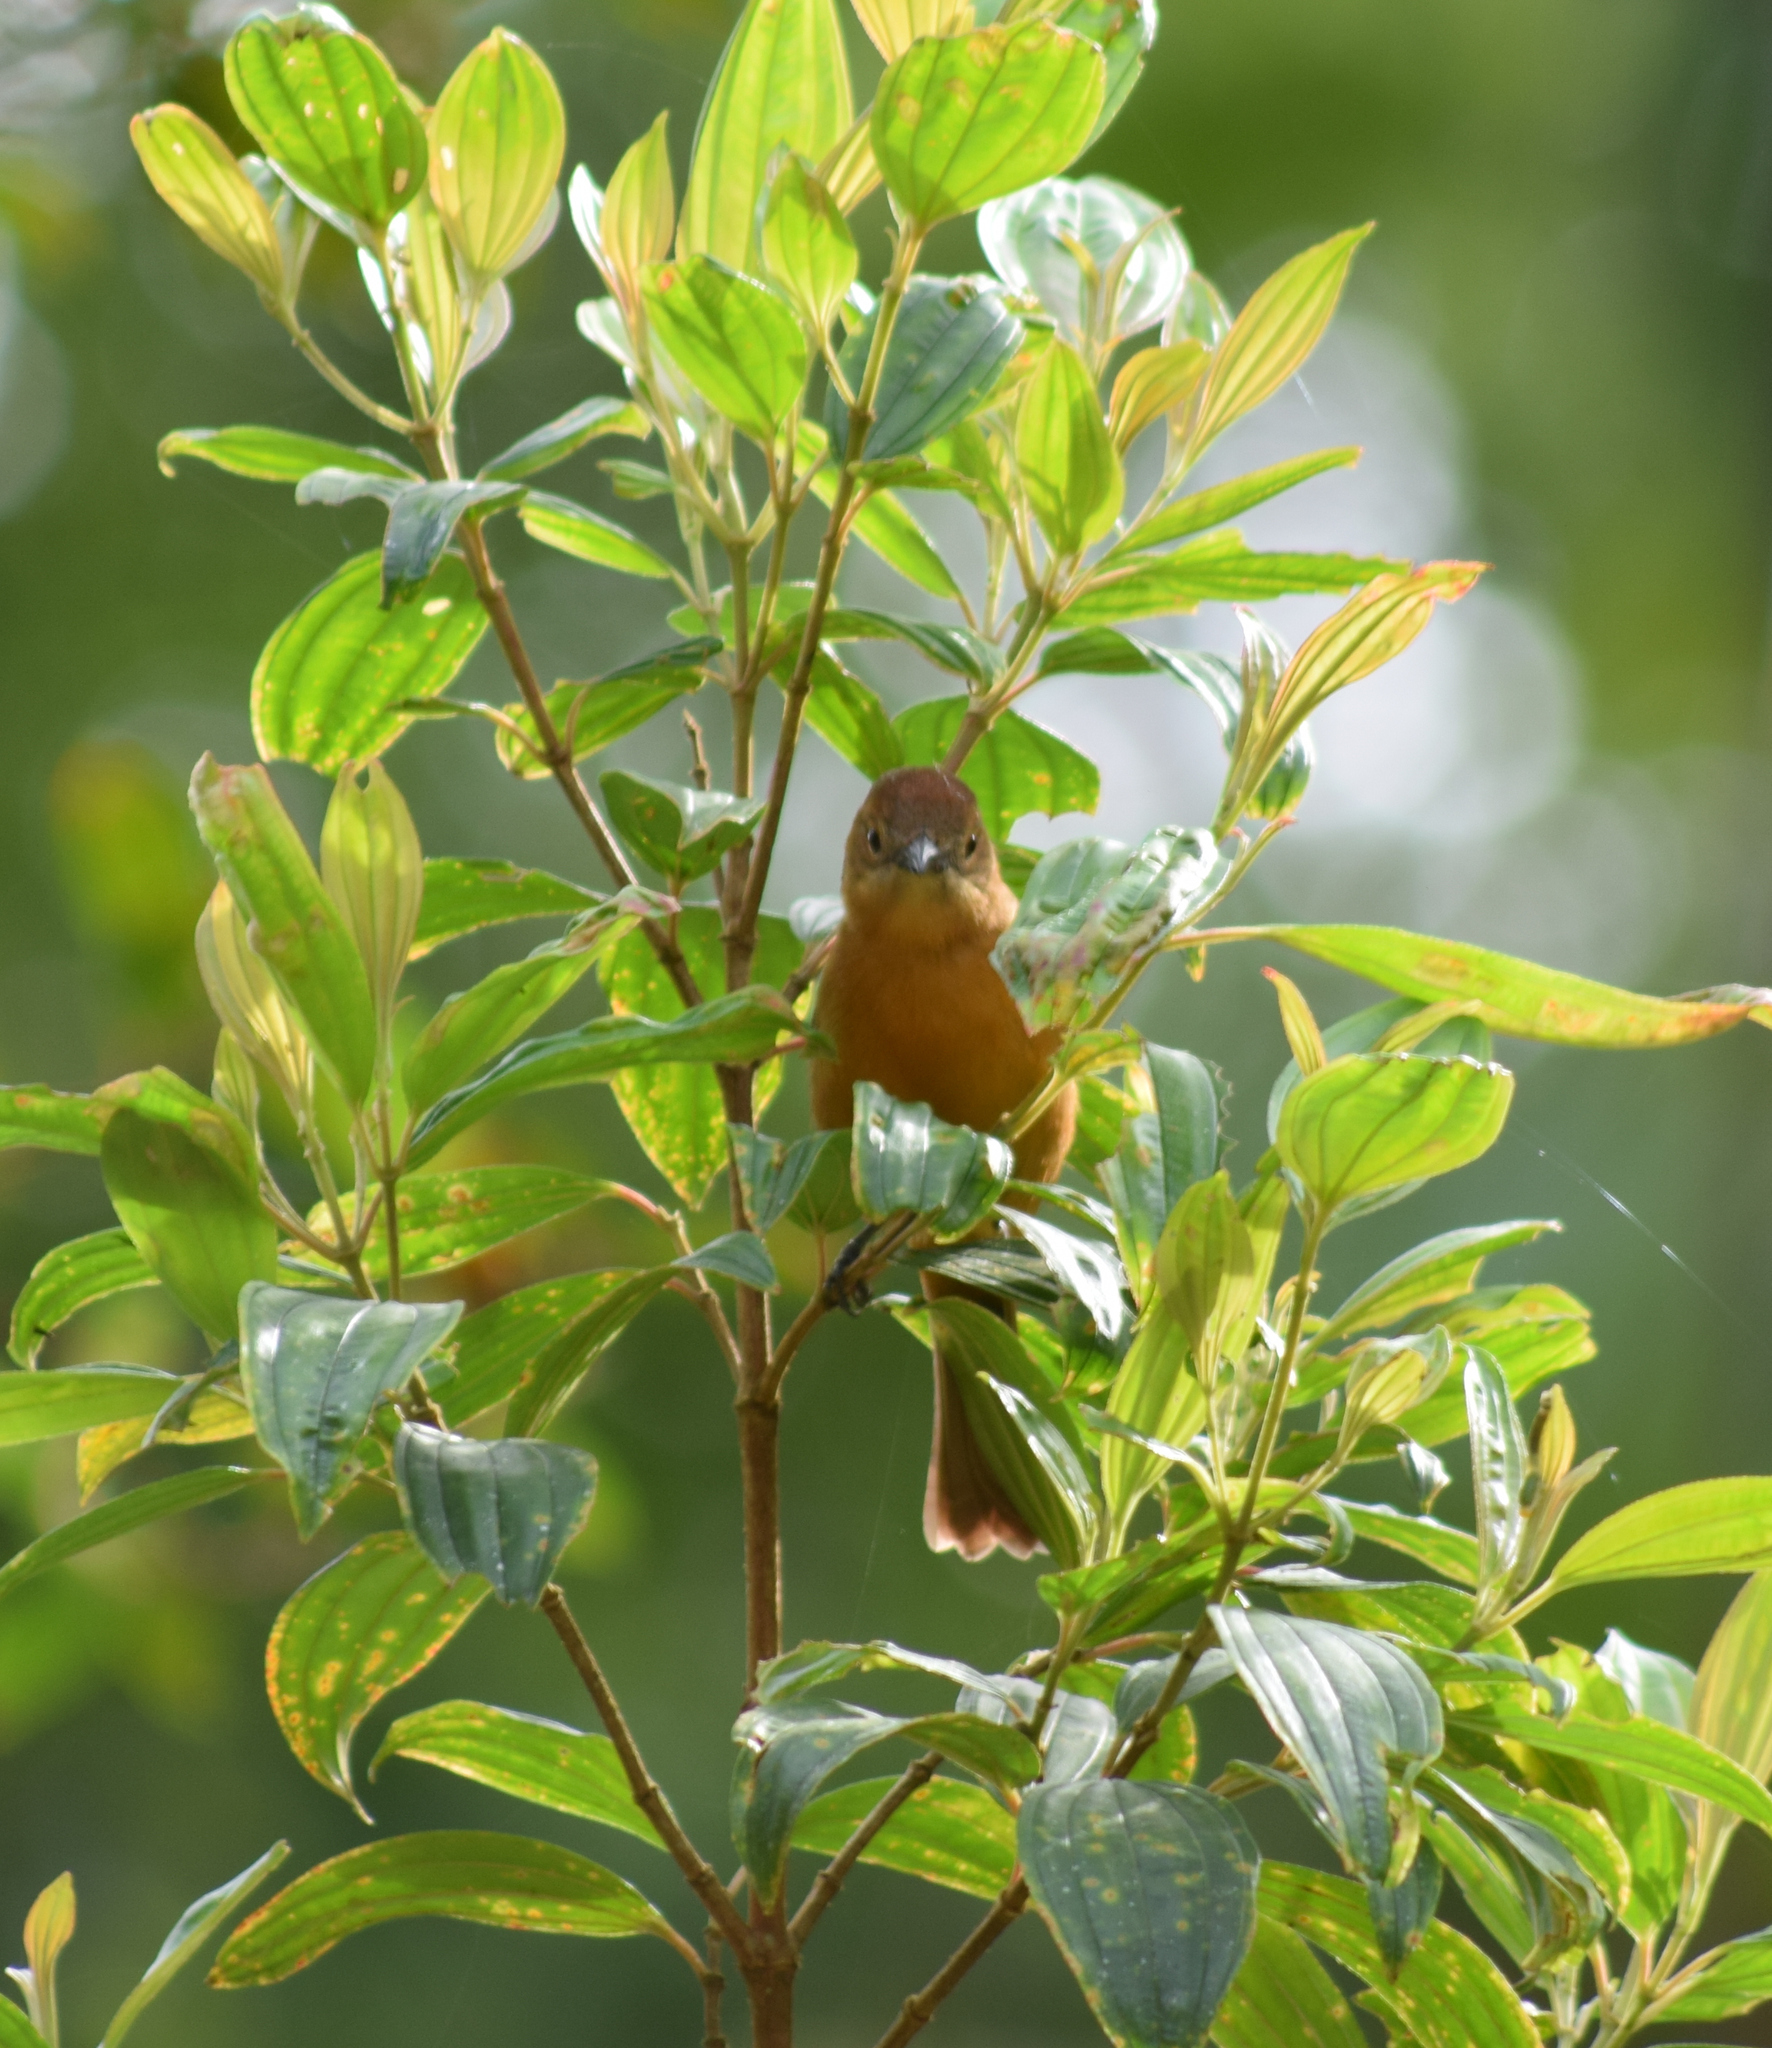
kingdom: Animalia
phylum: Chordata
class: Aves
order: Passeriformes
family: Thraupidae
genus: Loriotus
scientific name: Loriotus cristatus
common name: Flame-crested tanager
